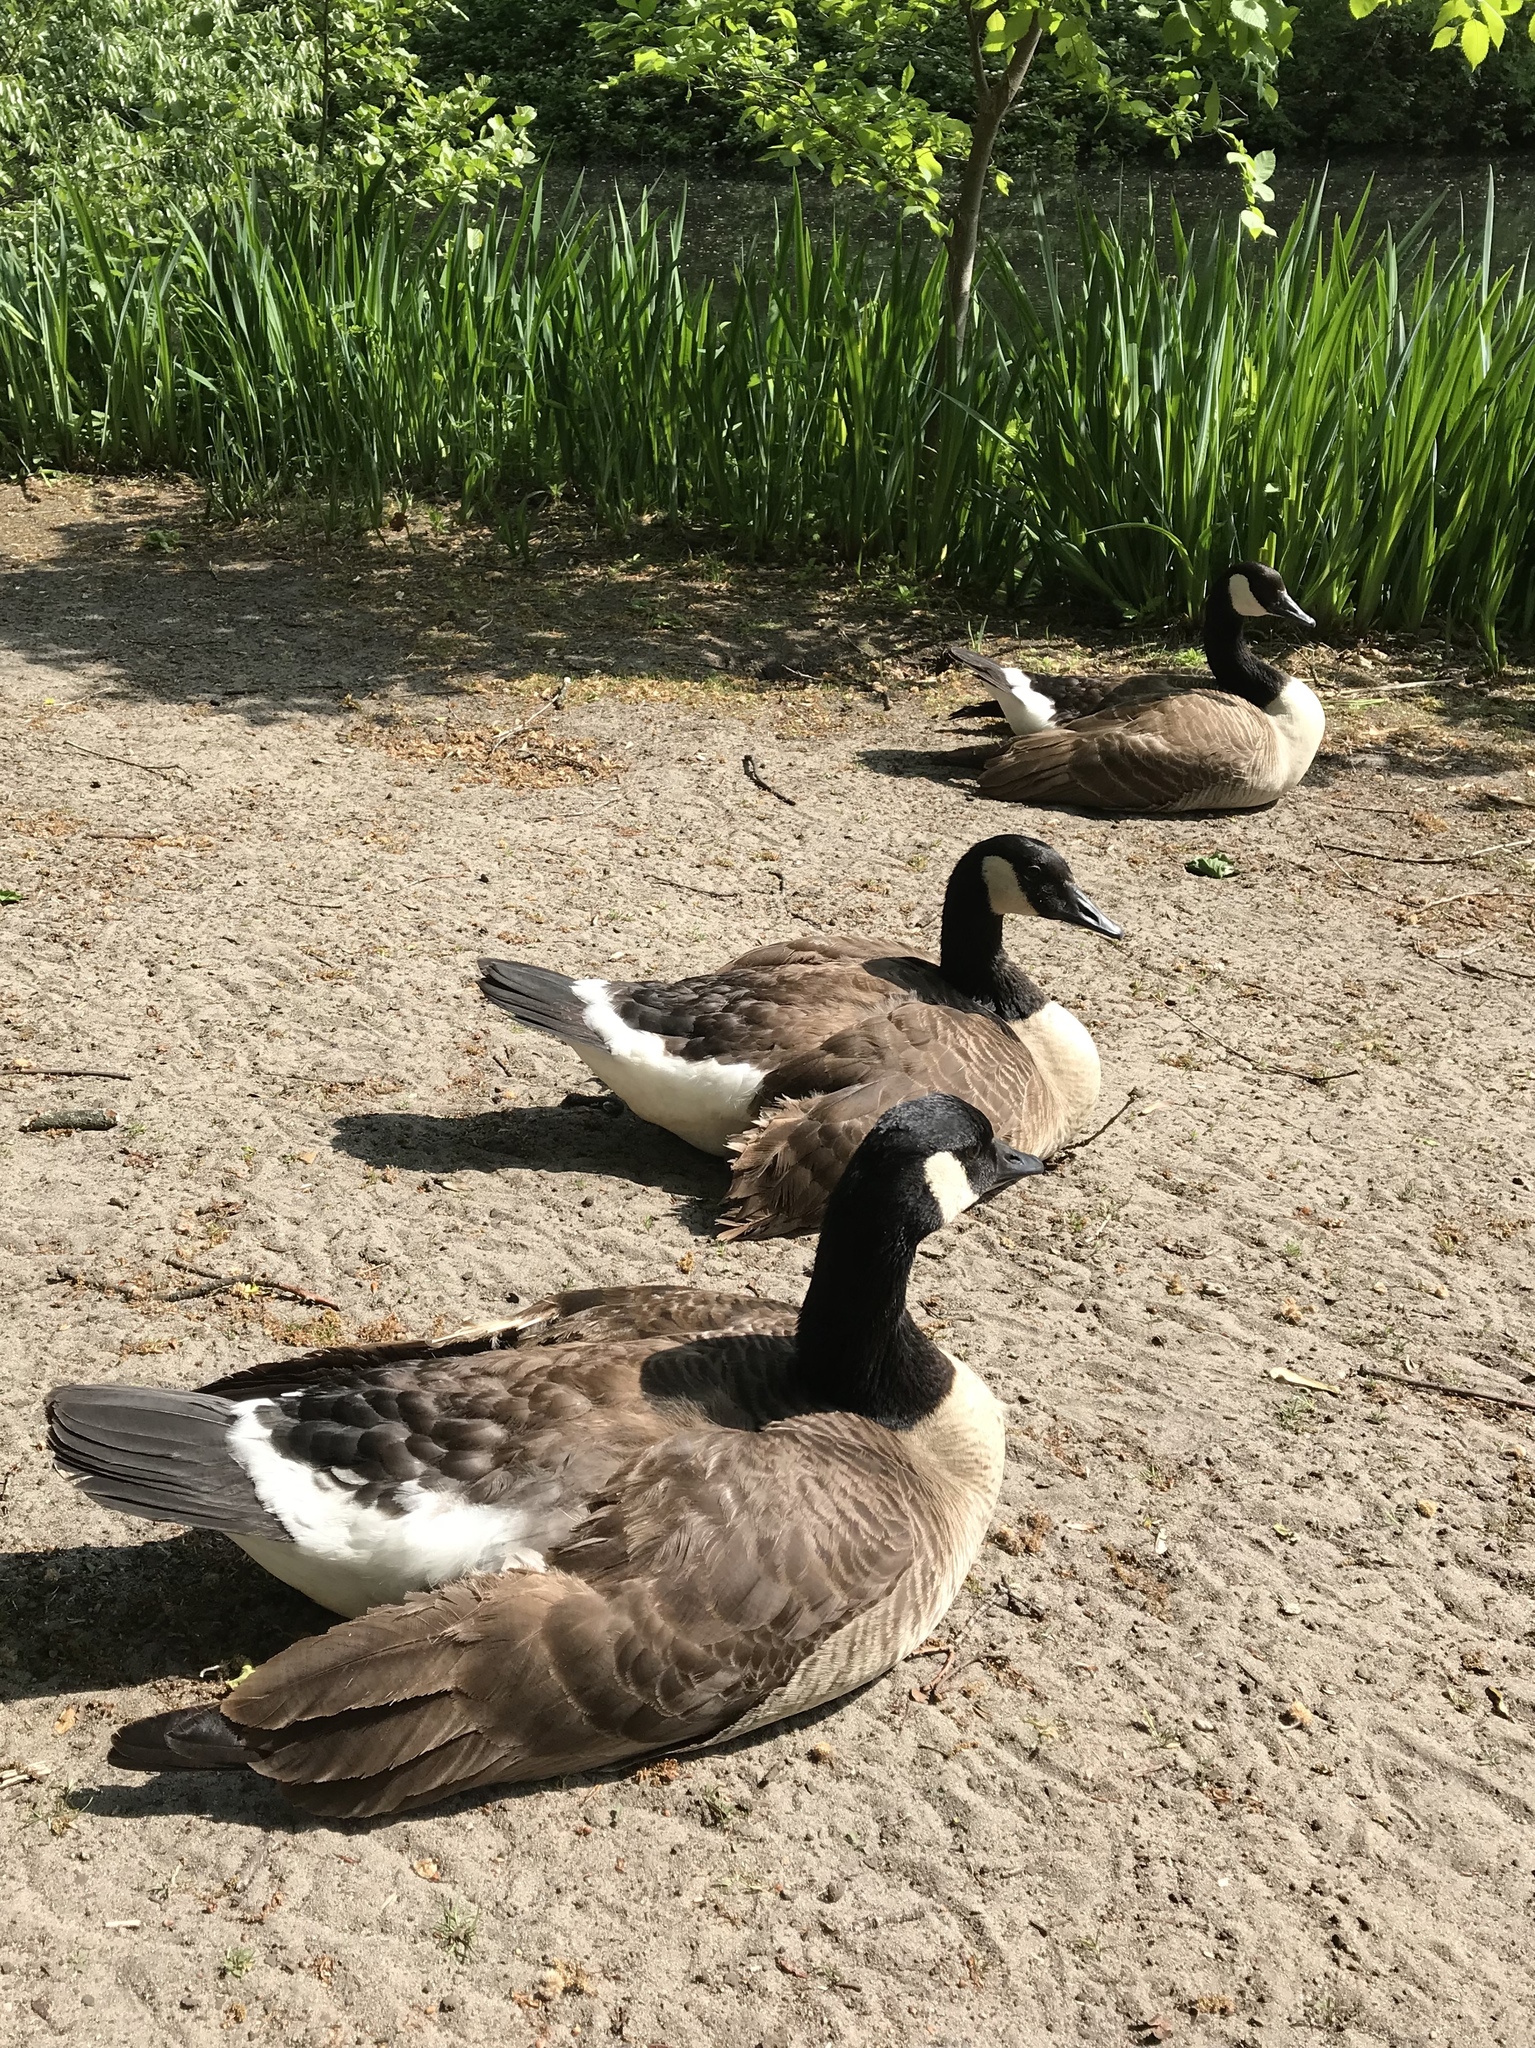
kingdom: Animalia
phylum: Chordata
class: Aves
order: Anseriformes
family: Anatidae
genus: Branta
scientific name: Branta canadensis
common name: Canada goose
